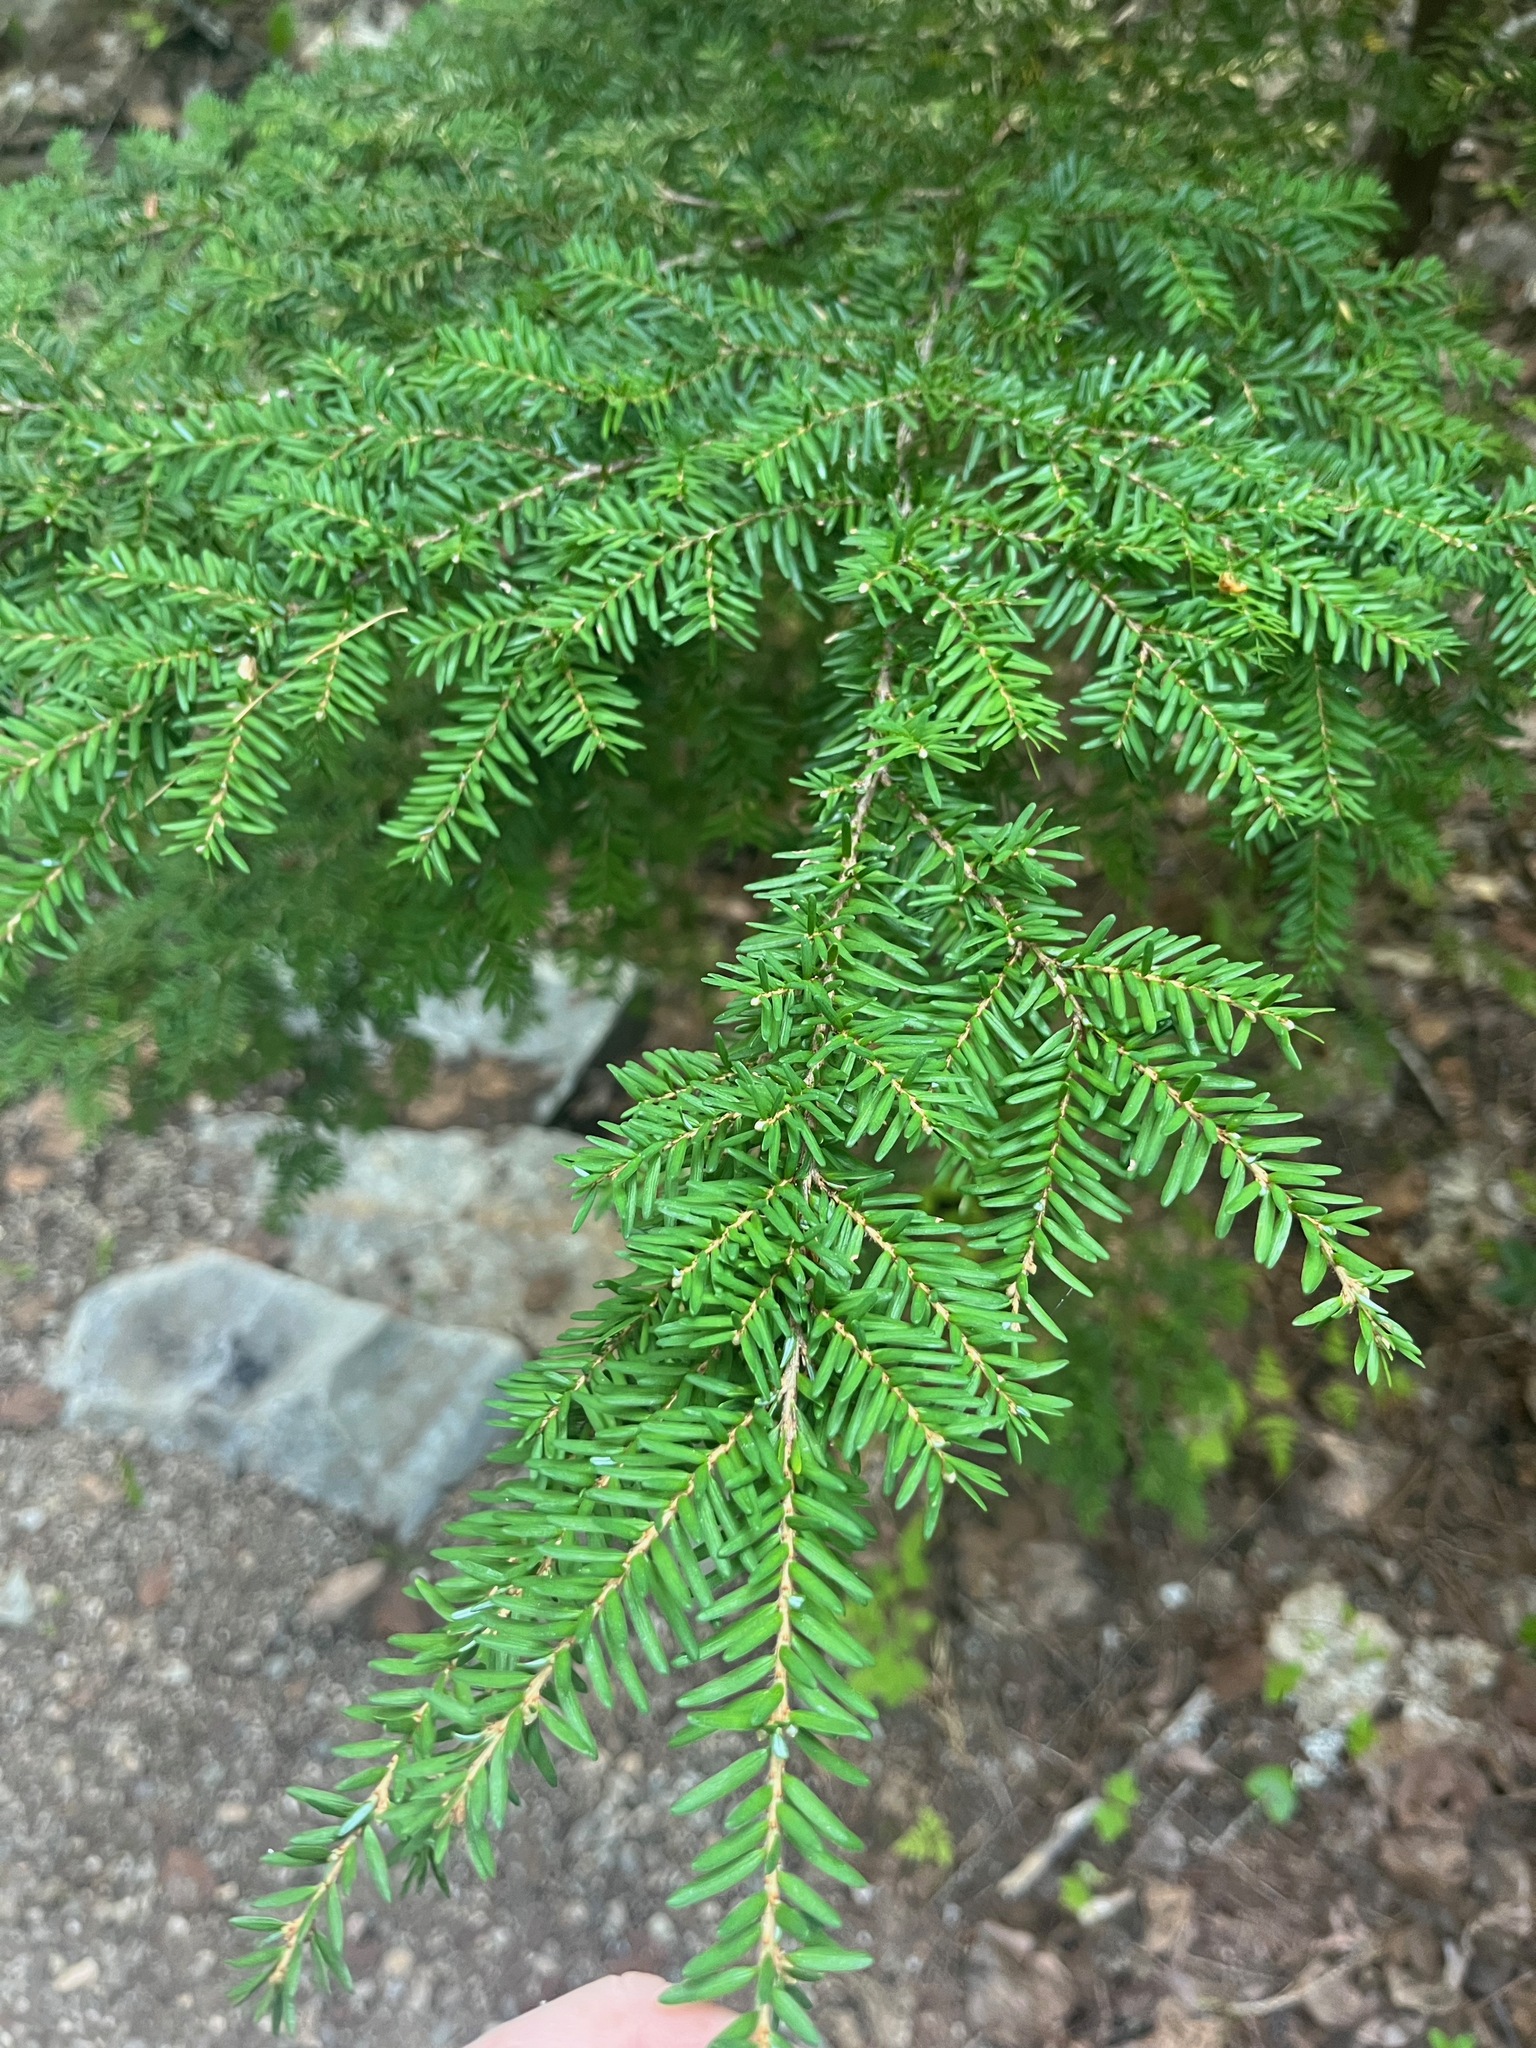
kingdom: Plantae
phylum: Tracheophyta
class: Pinopsida
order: Pinales
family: Pinaceae
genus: Tsuga
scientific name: Tsuga heterophylla
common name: Western hemlock
